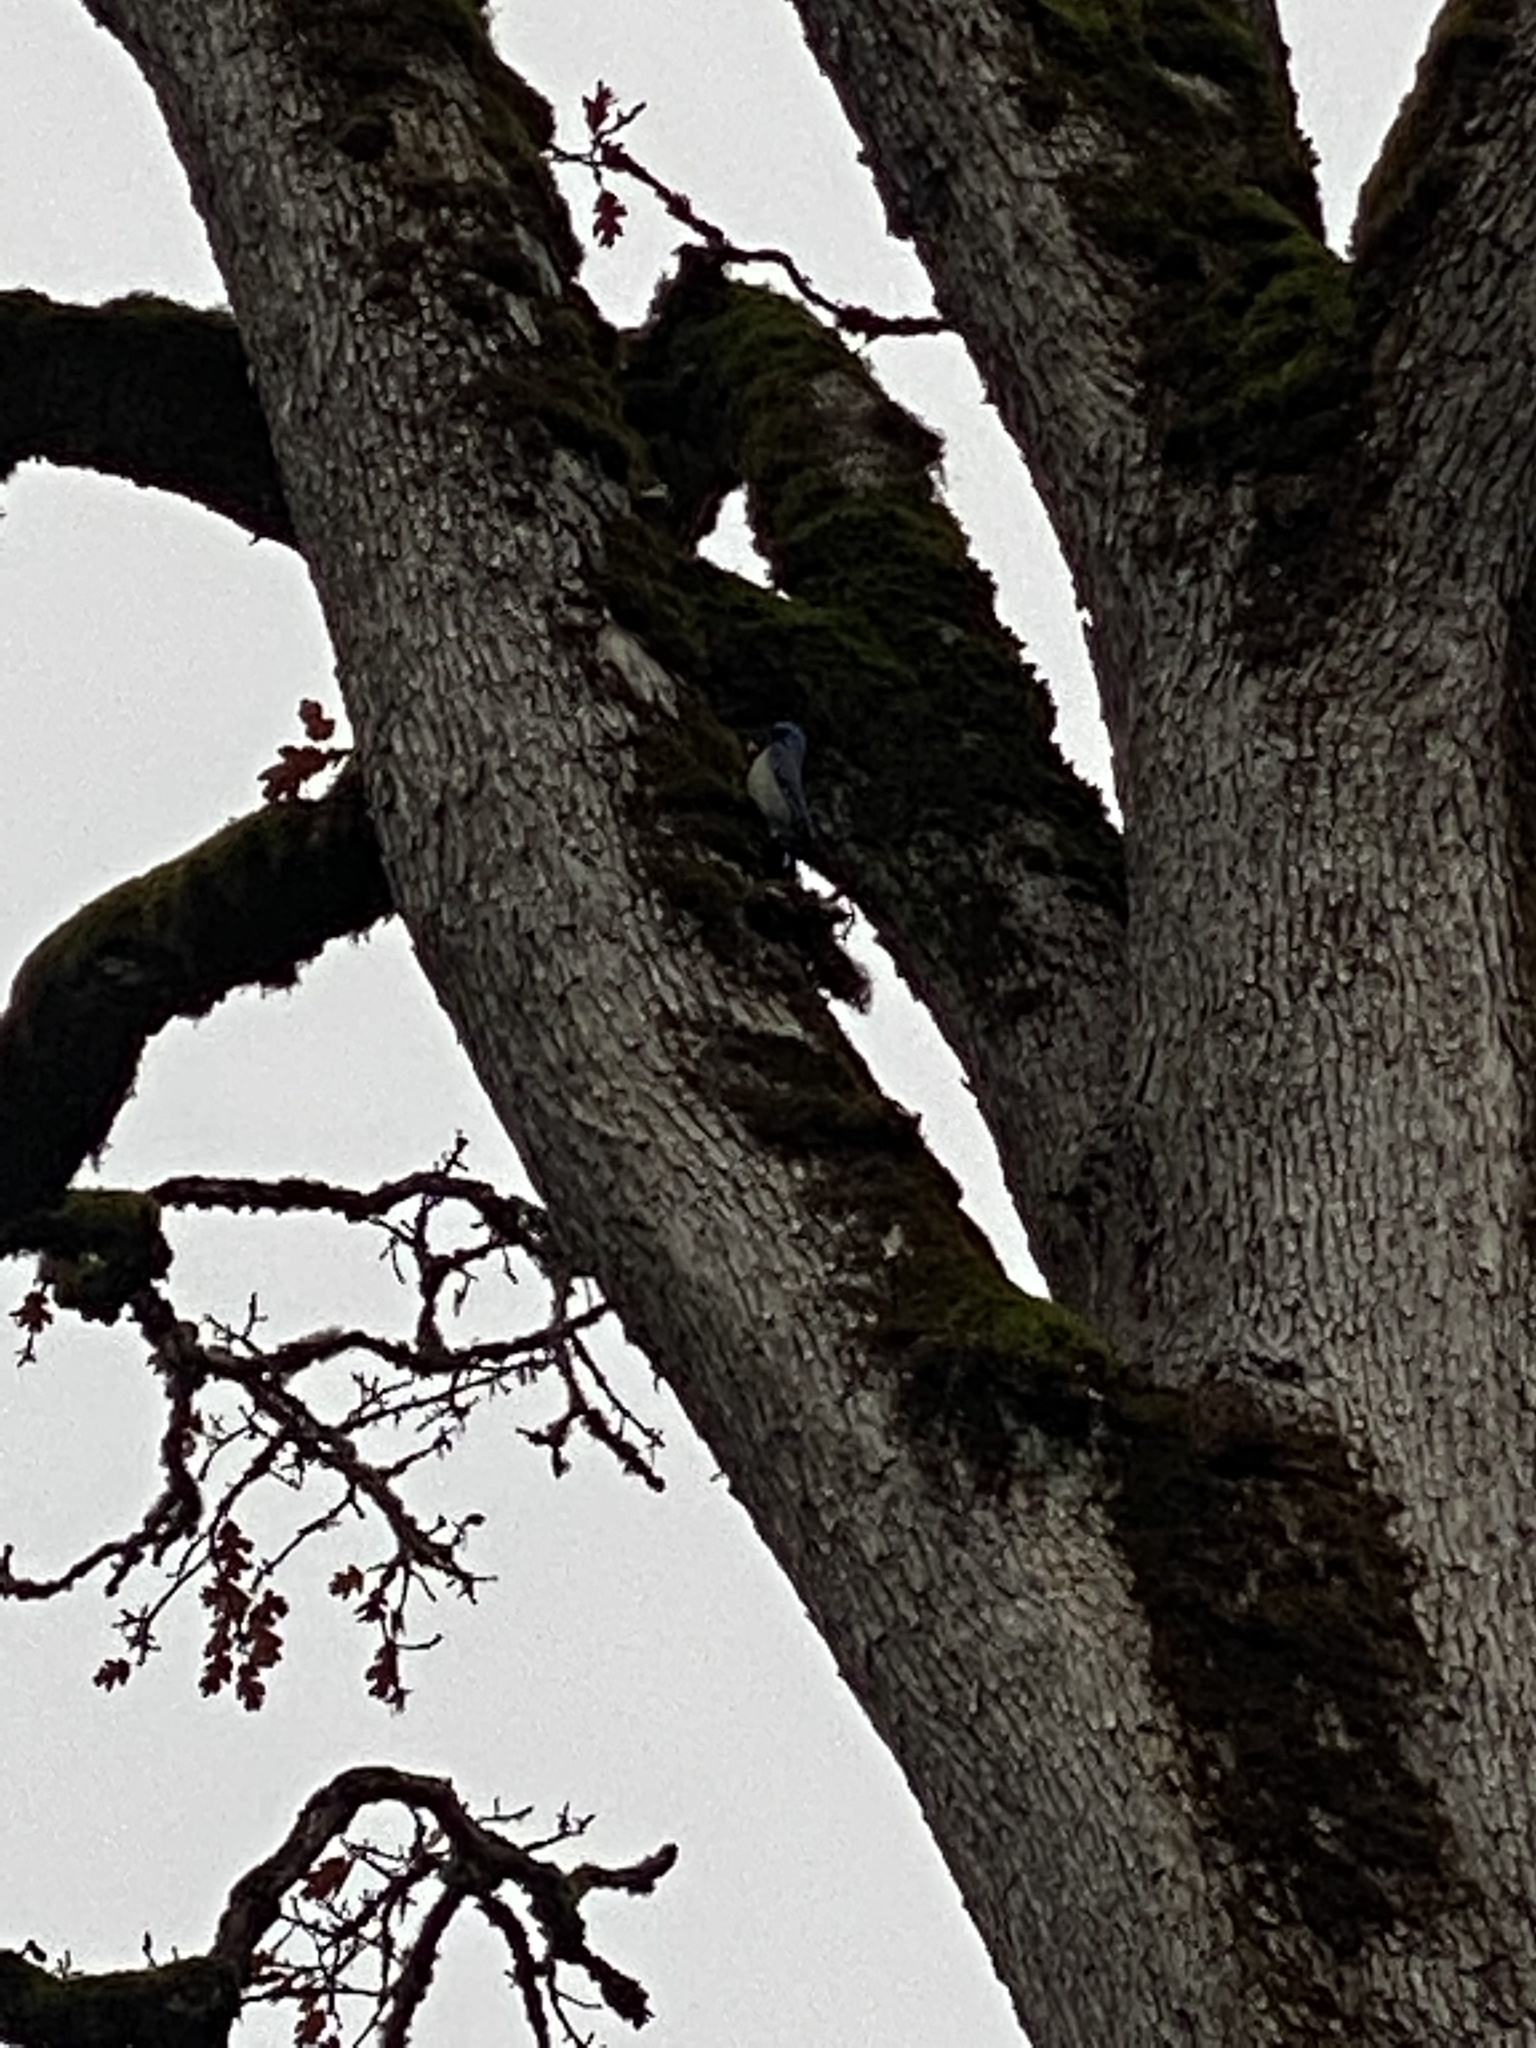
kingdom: Animalia
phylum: Chordata
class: Aves
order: Passeriformes
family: Corvidae
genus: Aphelocoma
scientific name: Aphelocoma californica
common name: California scrub-jay
